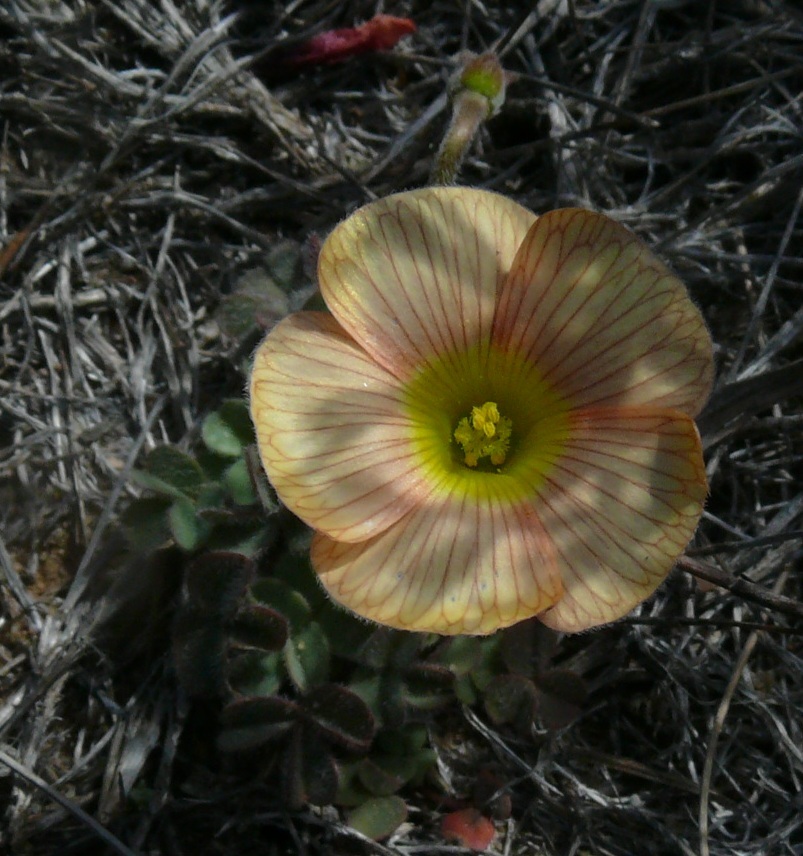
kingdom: Plantae
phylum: Tracheophyta
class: Magnoliopsida
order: Oxalidales
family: Oxalidaceae
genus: Oxalis
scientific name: Oxalis obtusa
